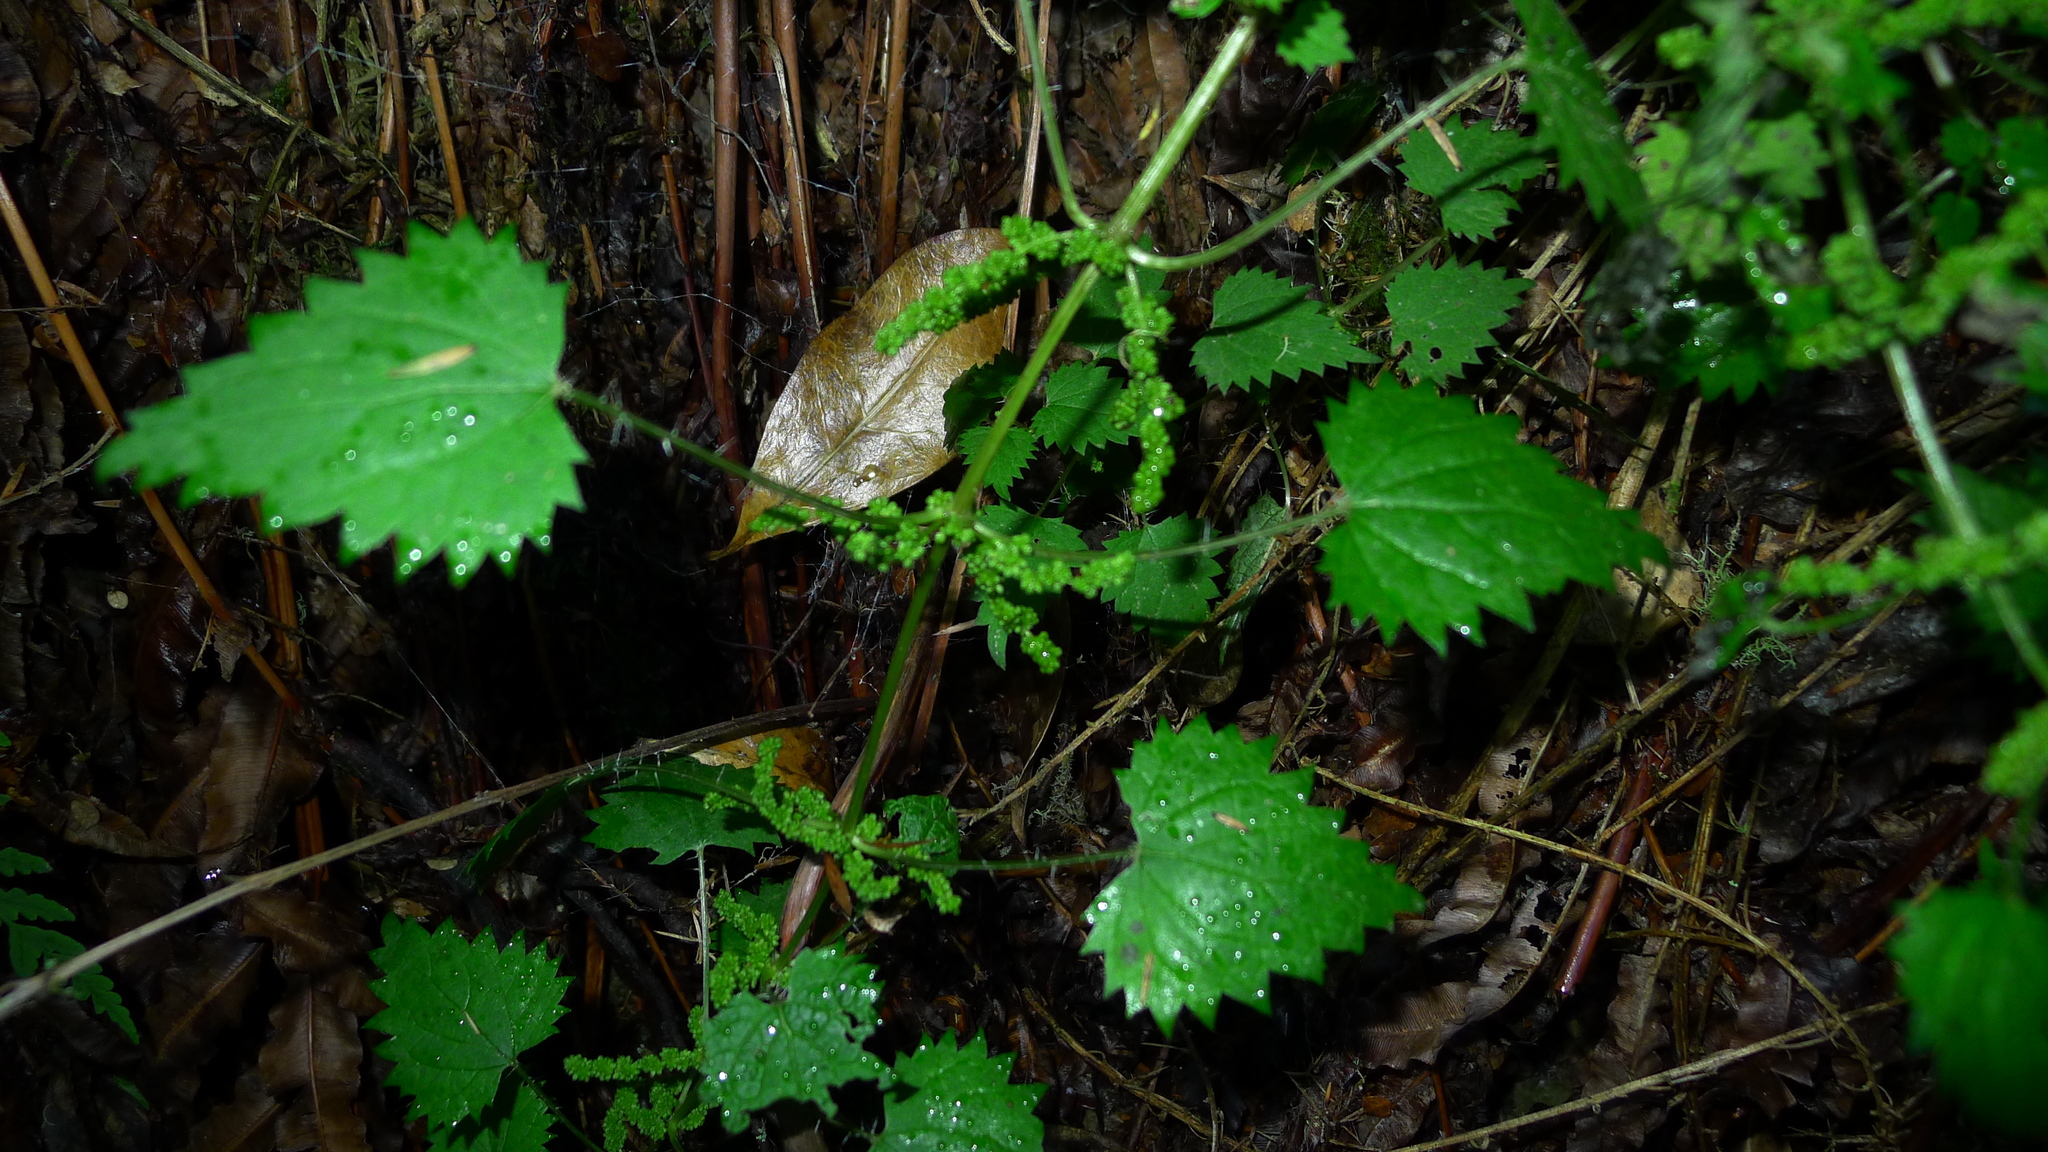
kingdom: Plantae
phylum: Tracheophyta
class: Magnoliopsida
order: Rosales
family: Urticaceae
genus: Urtica
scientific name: Urtica sykesii
